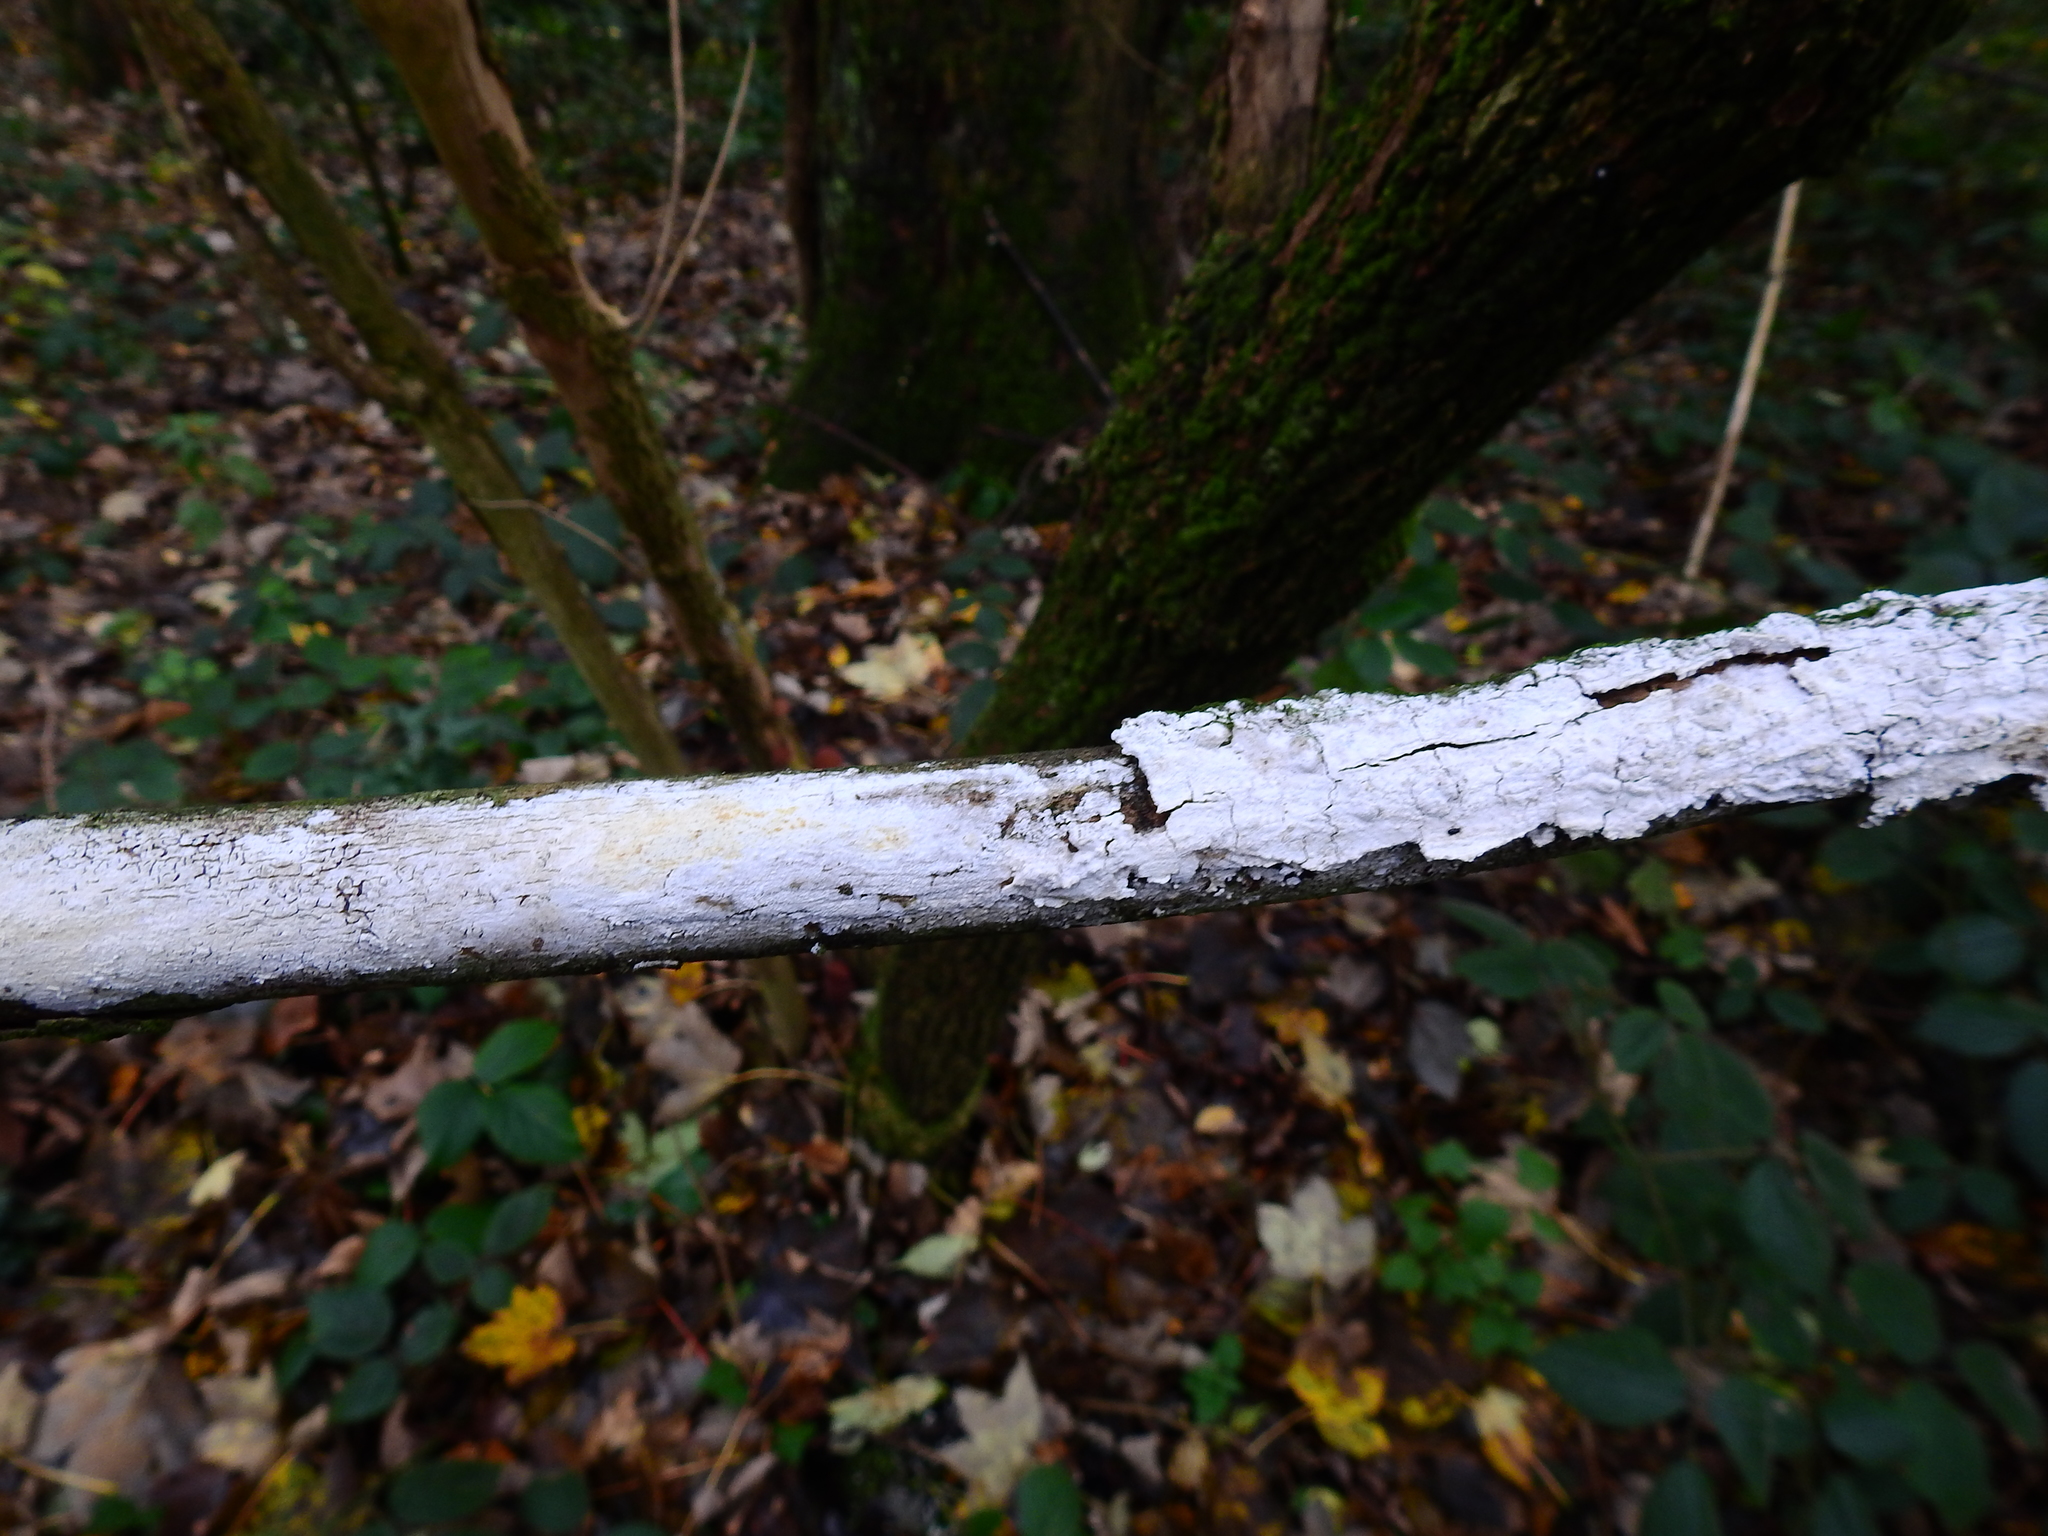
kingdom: Fungi
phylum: Basidiomycota
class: Agaricomycetes
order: Corticiales
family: Corticiaceae
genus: Lyomyces
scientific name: Lyomyces sambuci
